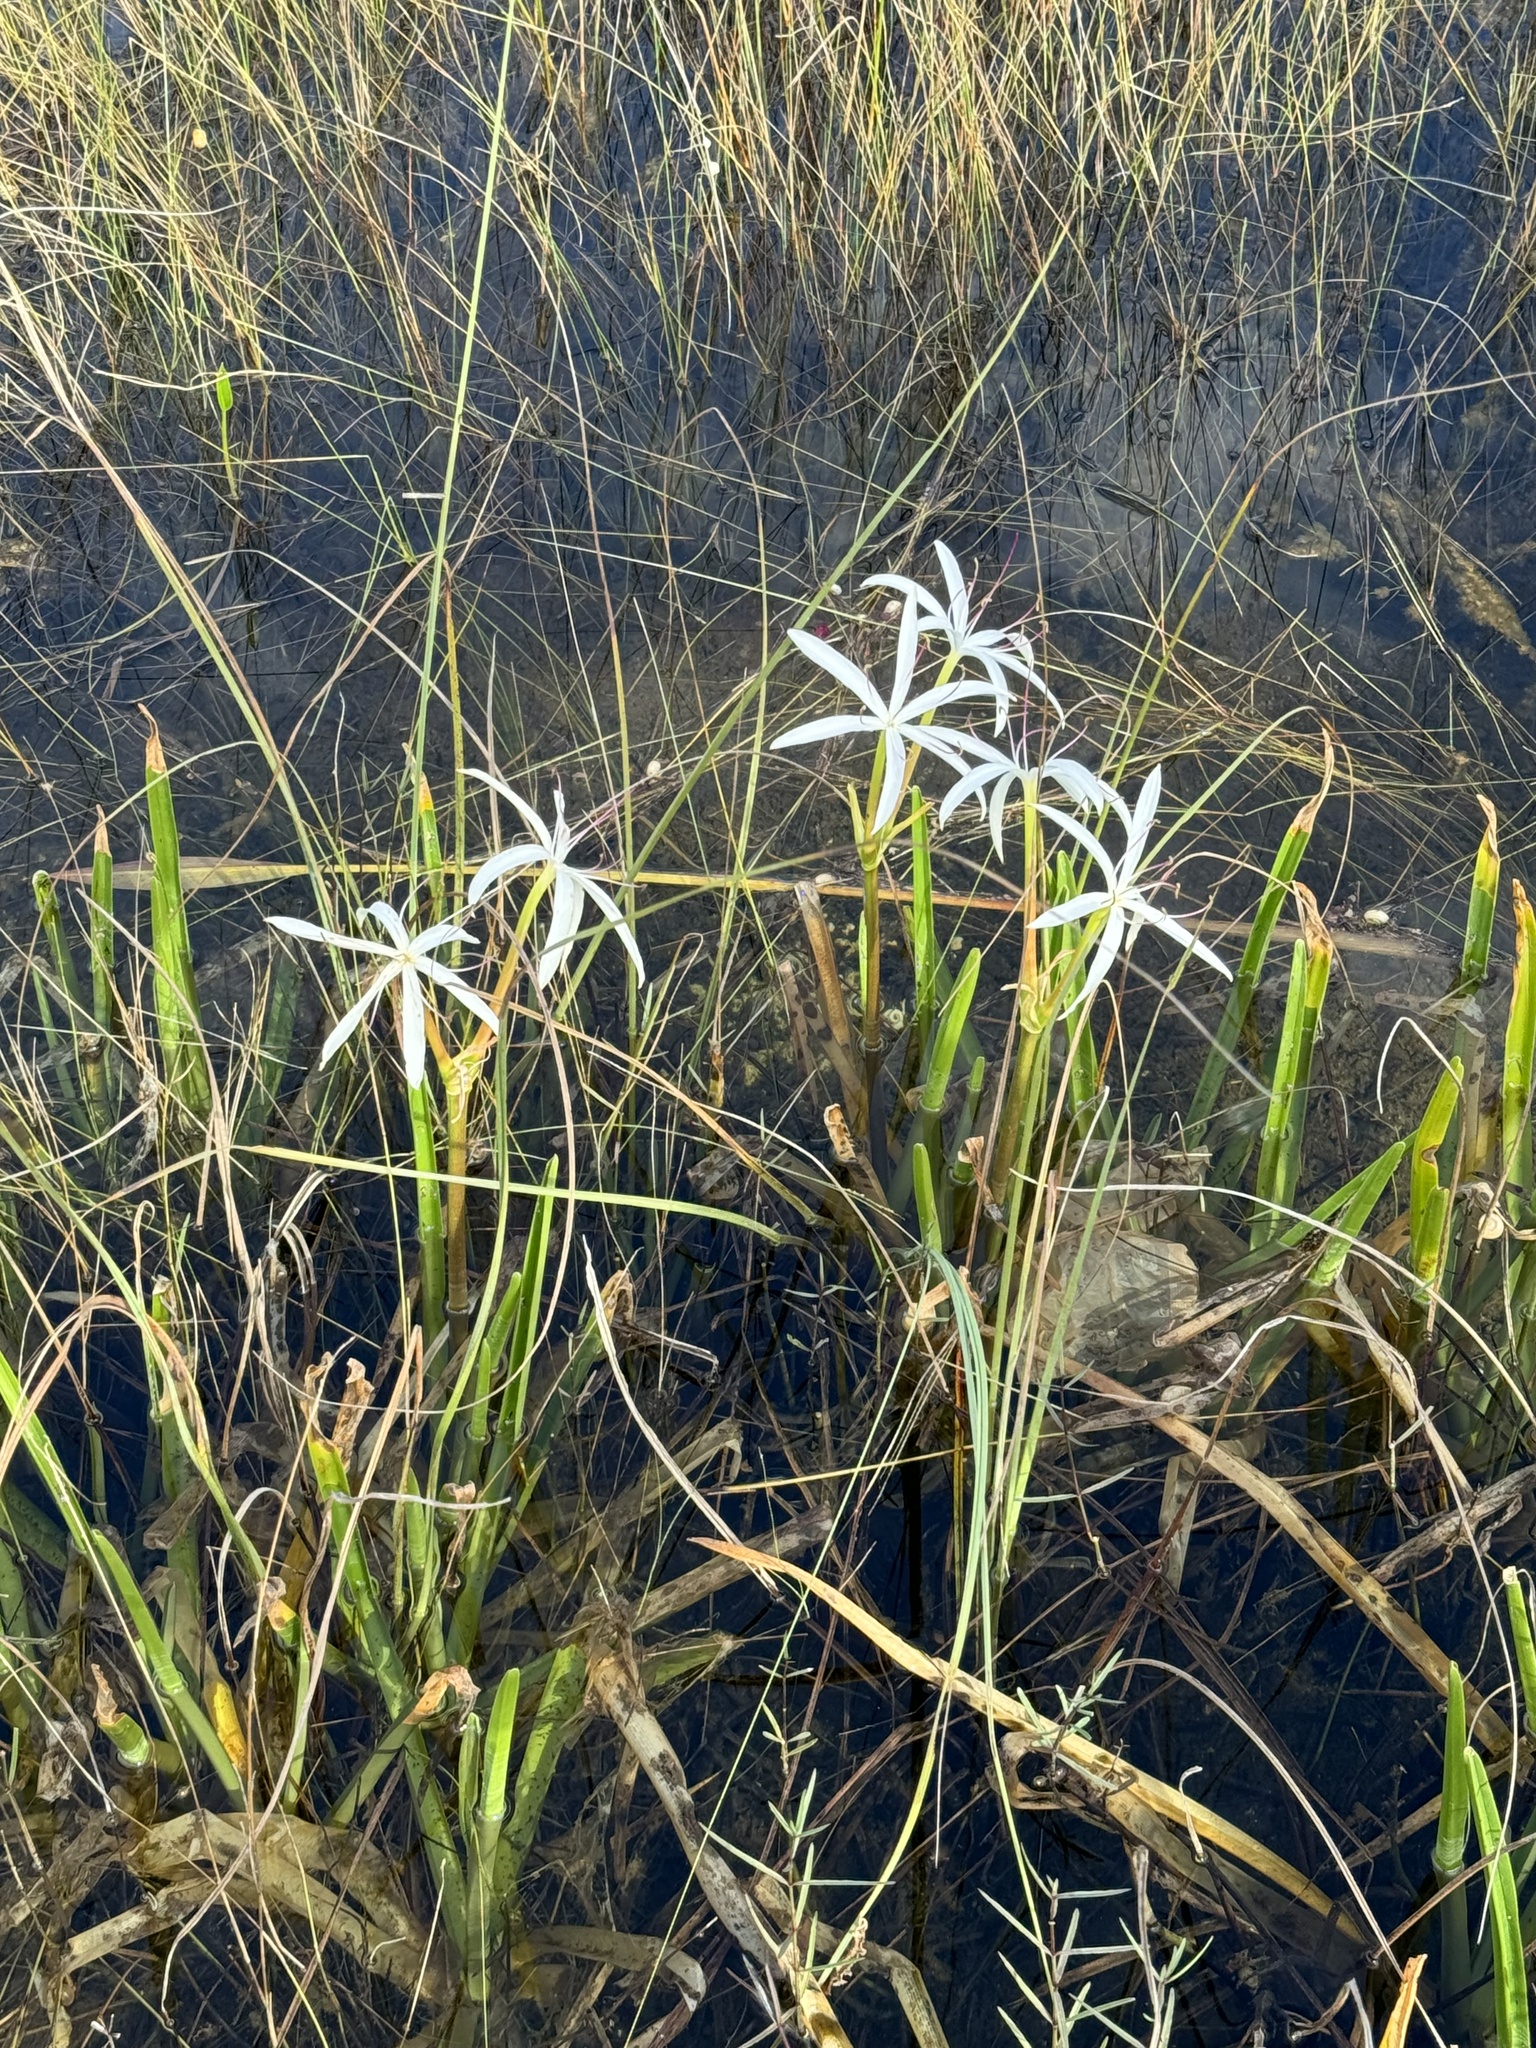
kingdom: Plantae
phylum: Tracheophyta
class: Liliopsida
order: Asparagales
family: Amaryllidaceae
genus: Crinum
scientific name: Crinum americanum
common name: Florida swamp-lily
